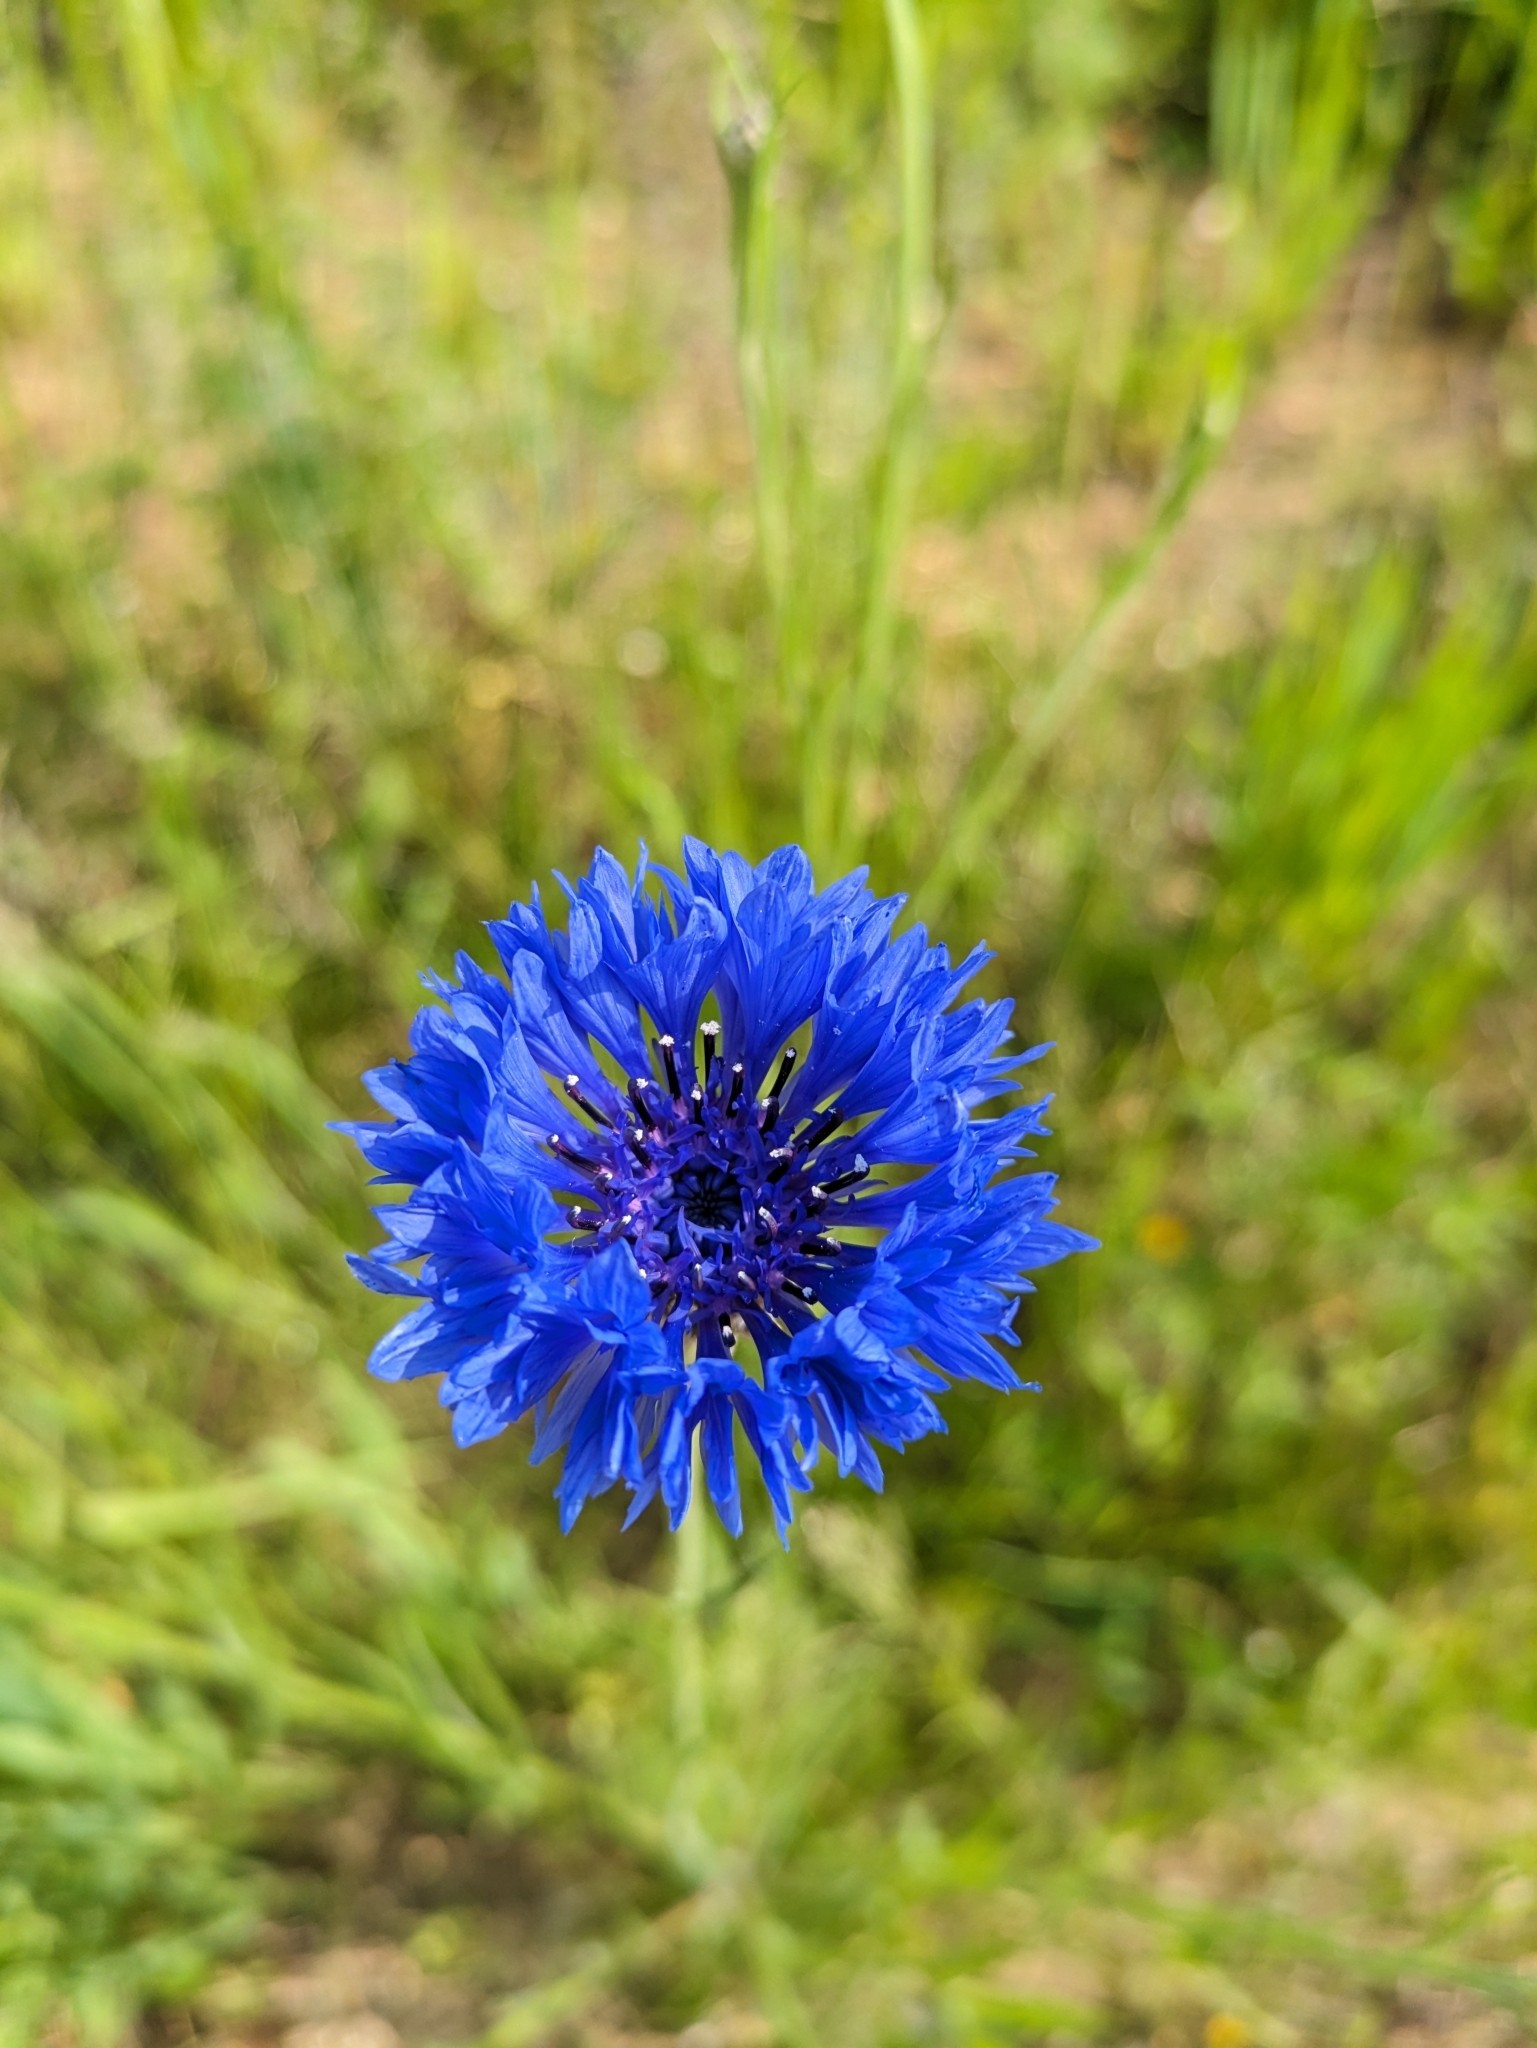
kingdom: Plantae
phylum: Tracheophyta
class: Magnoliopsida
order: Asterales
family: Asteraceae
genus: Centaurea
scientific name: Centaurea cyanus
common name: Cornflower
